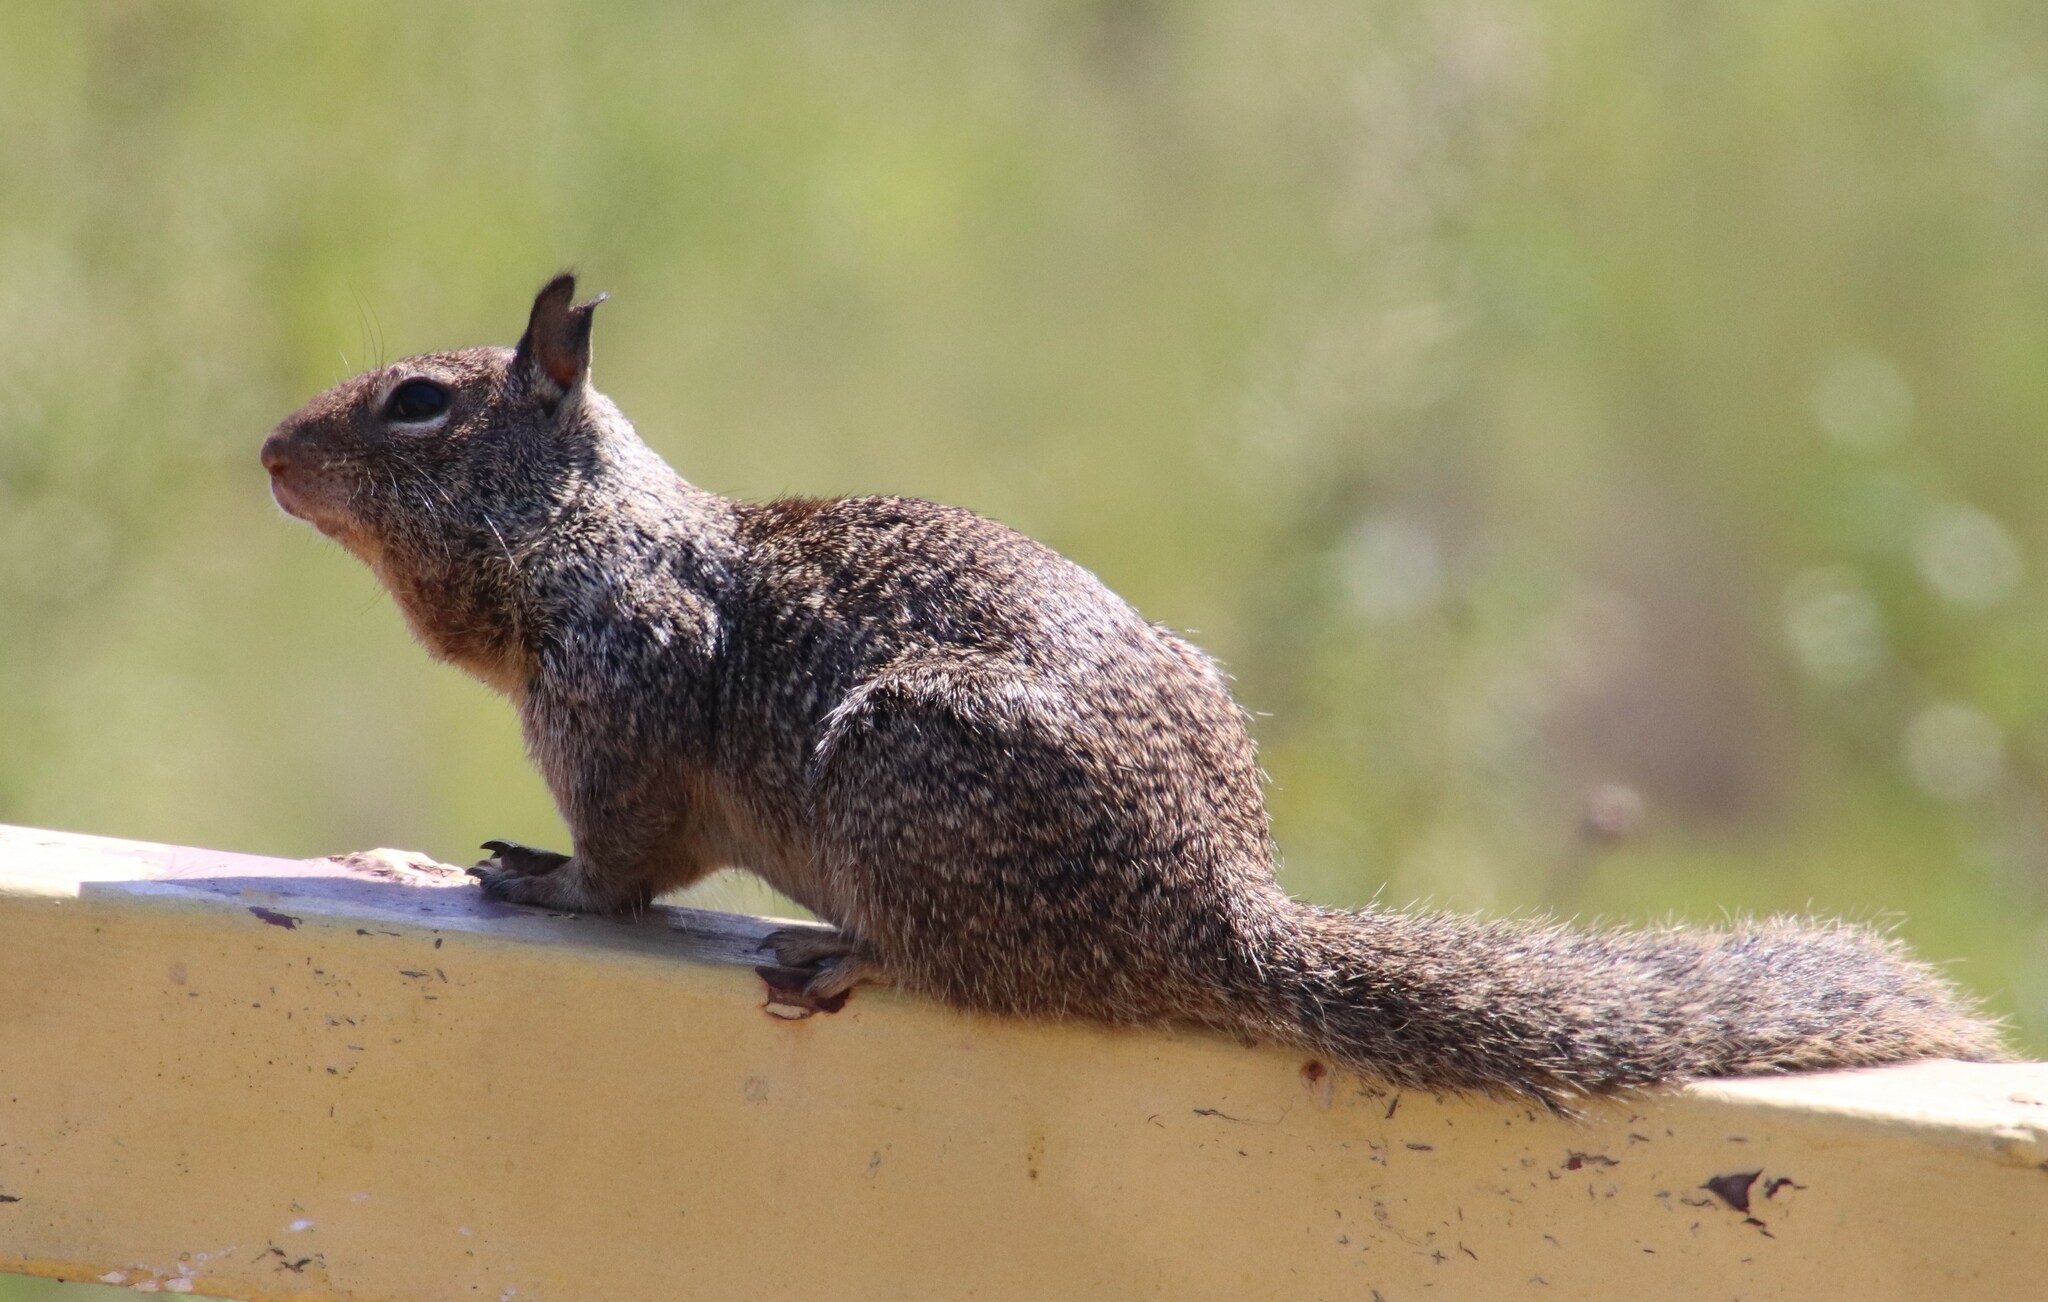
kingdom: Animalia
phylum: Chordata
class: Mammalia
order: Rodentia
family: Sciuridae
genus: Otospermophilus
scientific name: Otospermophilus beecheyi
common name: California ground squirrel
